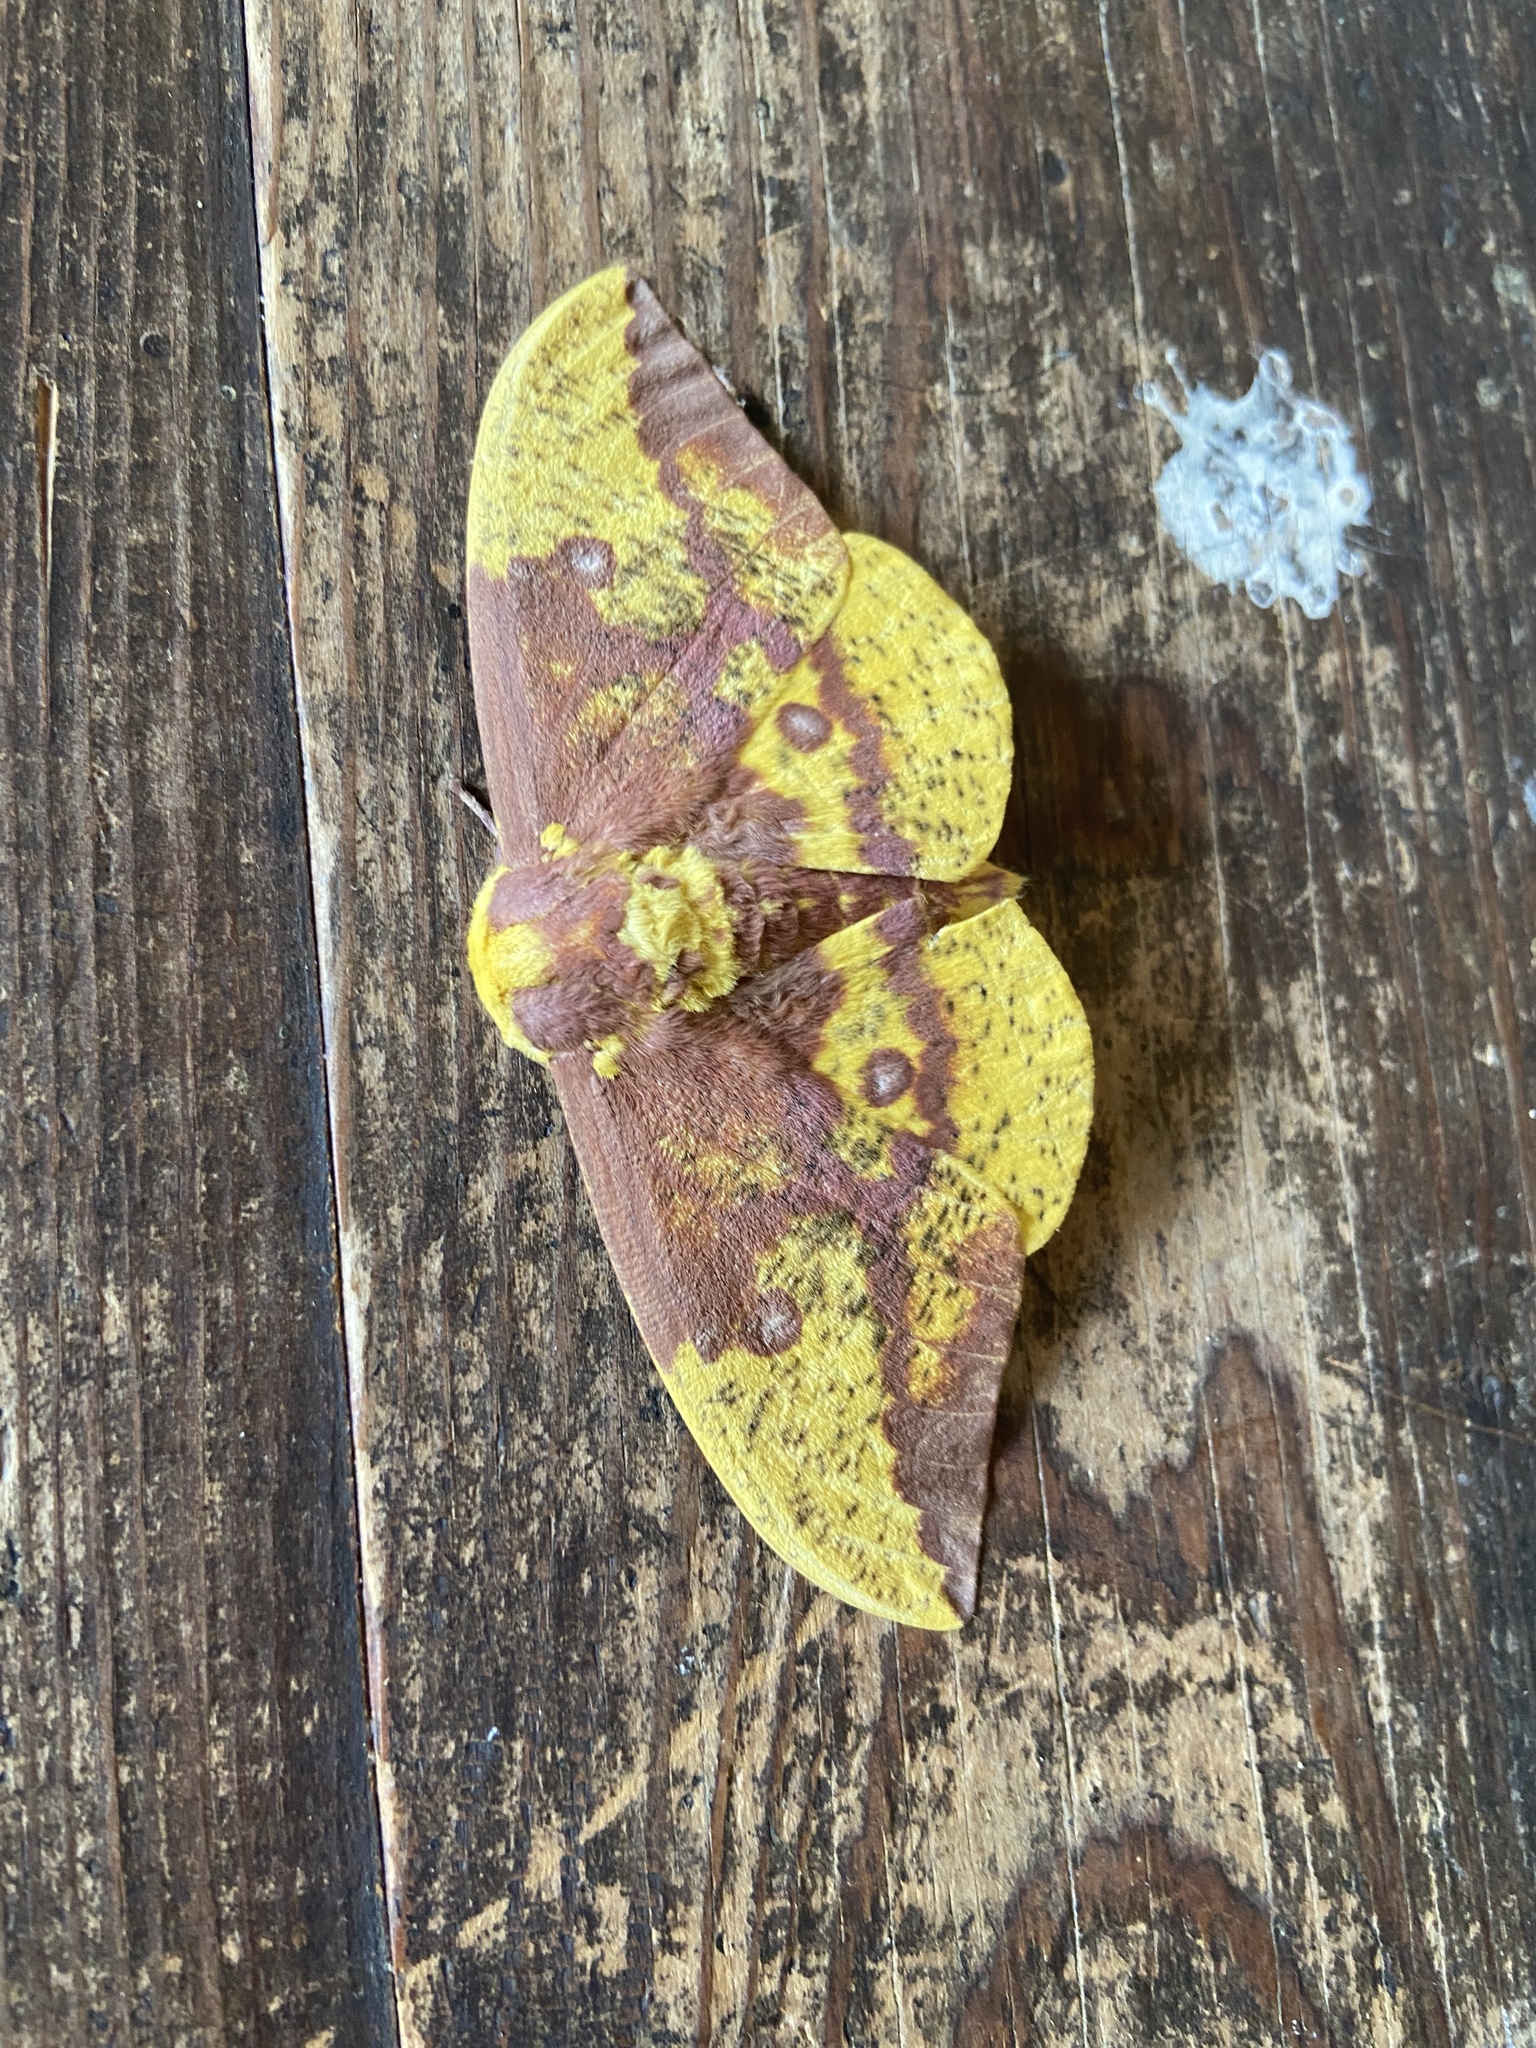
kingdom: Animalia
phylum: Arthropoda
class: Insecta
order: Lepidoptera
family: Saturniidae
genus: Eacles
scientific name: Eacles imperialis
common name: Imperial moth
